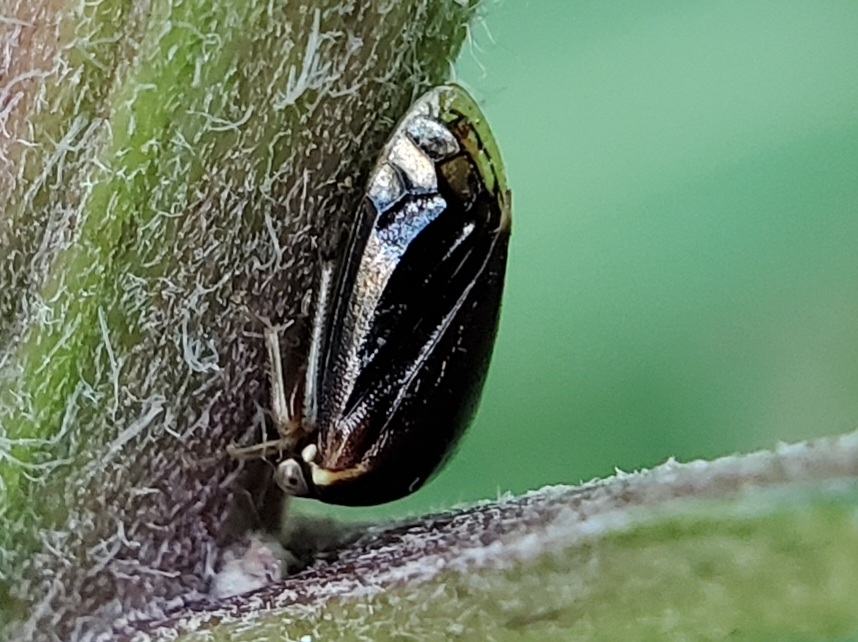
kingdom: Animalia
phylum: Arthropoda
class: Insecta
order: Hemiptera
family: Membracidae
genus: Acutalis
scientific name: Acutalis tartarea
